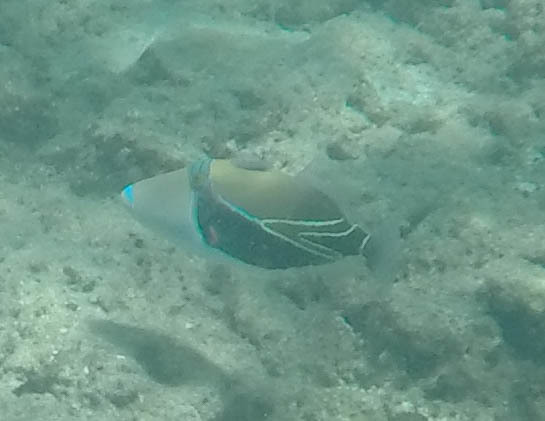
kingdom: Animalia
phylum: Chordata
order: Tetraodontiformes
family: Balistidae
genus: Rhinecanthus
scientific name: Rhinecanthus rectangulus
